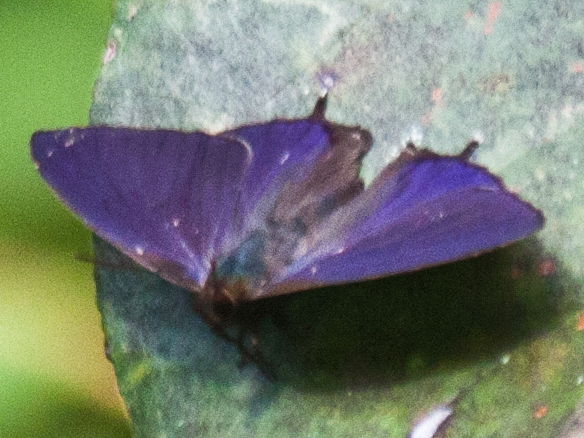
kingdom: Animalia
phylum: Arthropoda
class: Insecta
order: Lepidoptera
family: Lycaenidae
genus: Flos
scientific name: Flos
